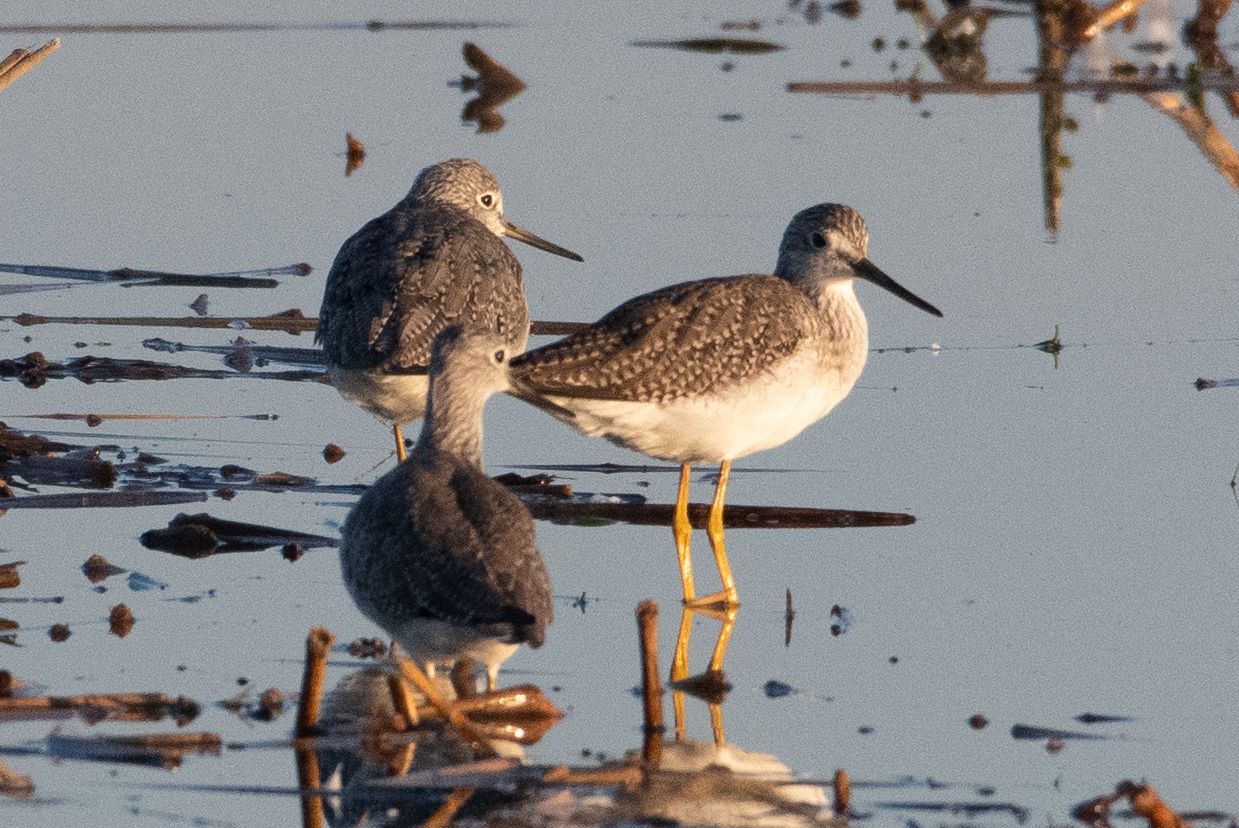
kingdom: Animalia
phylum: Chordata
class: Aves
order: Charadriiformes
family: Scolopacidae
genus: Tringa
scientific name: Tringa melanoleuca
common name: Greater yellowlegs
